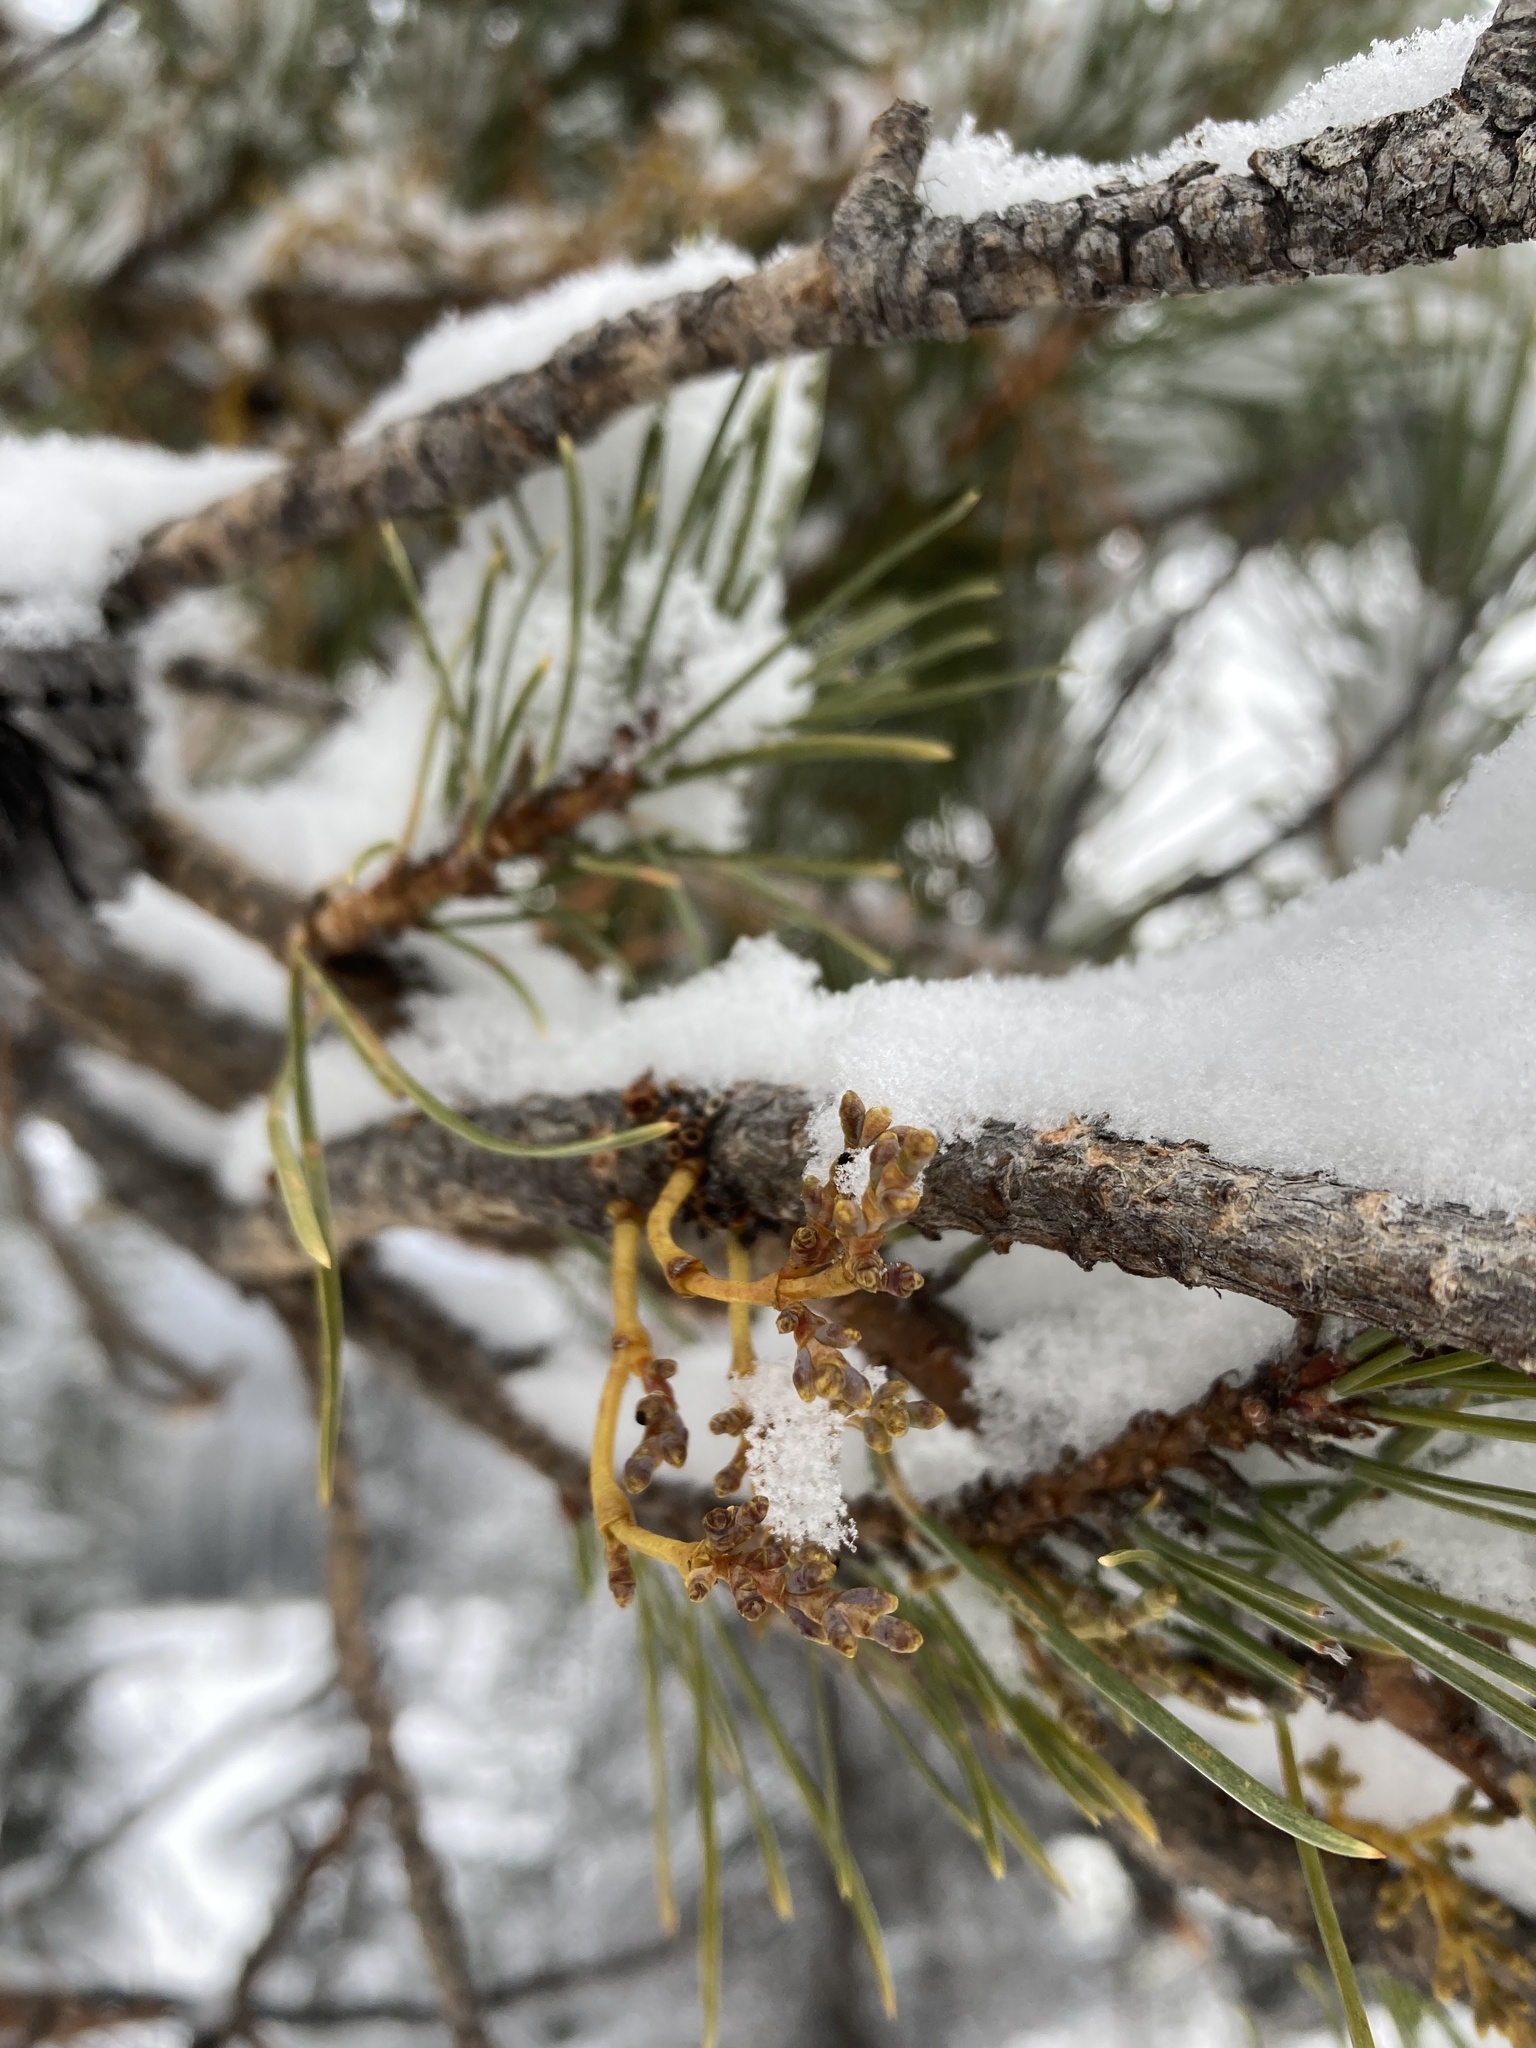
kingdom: Plantae
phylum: Tracheophyta
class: Magnoliopsida
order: Santalales
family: Viscaceae
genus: Arceuthobium
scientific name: Arceuthobium americanum
